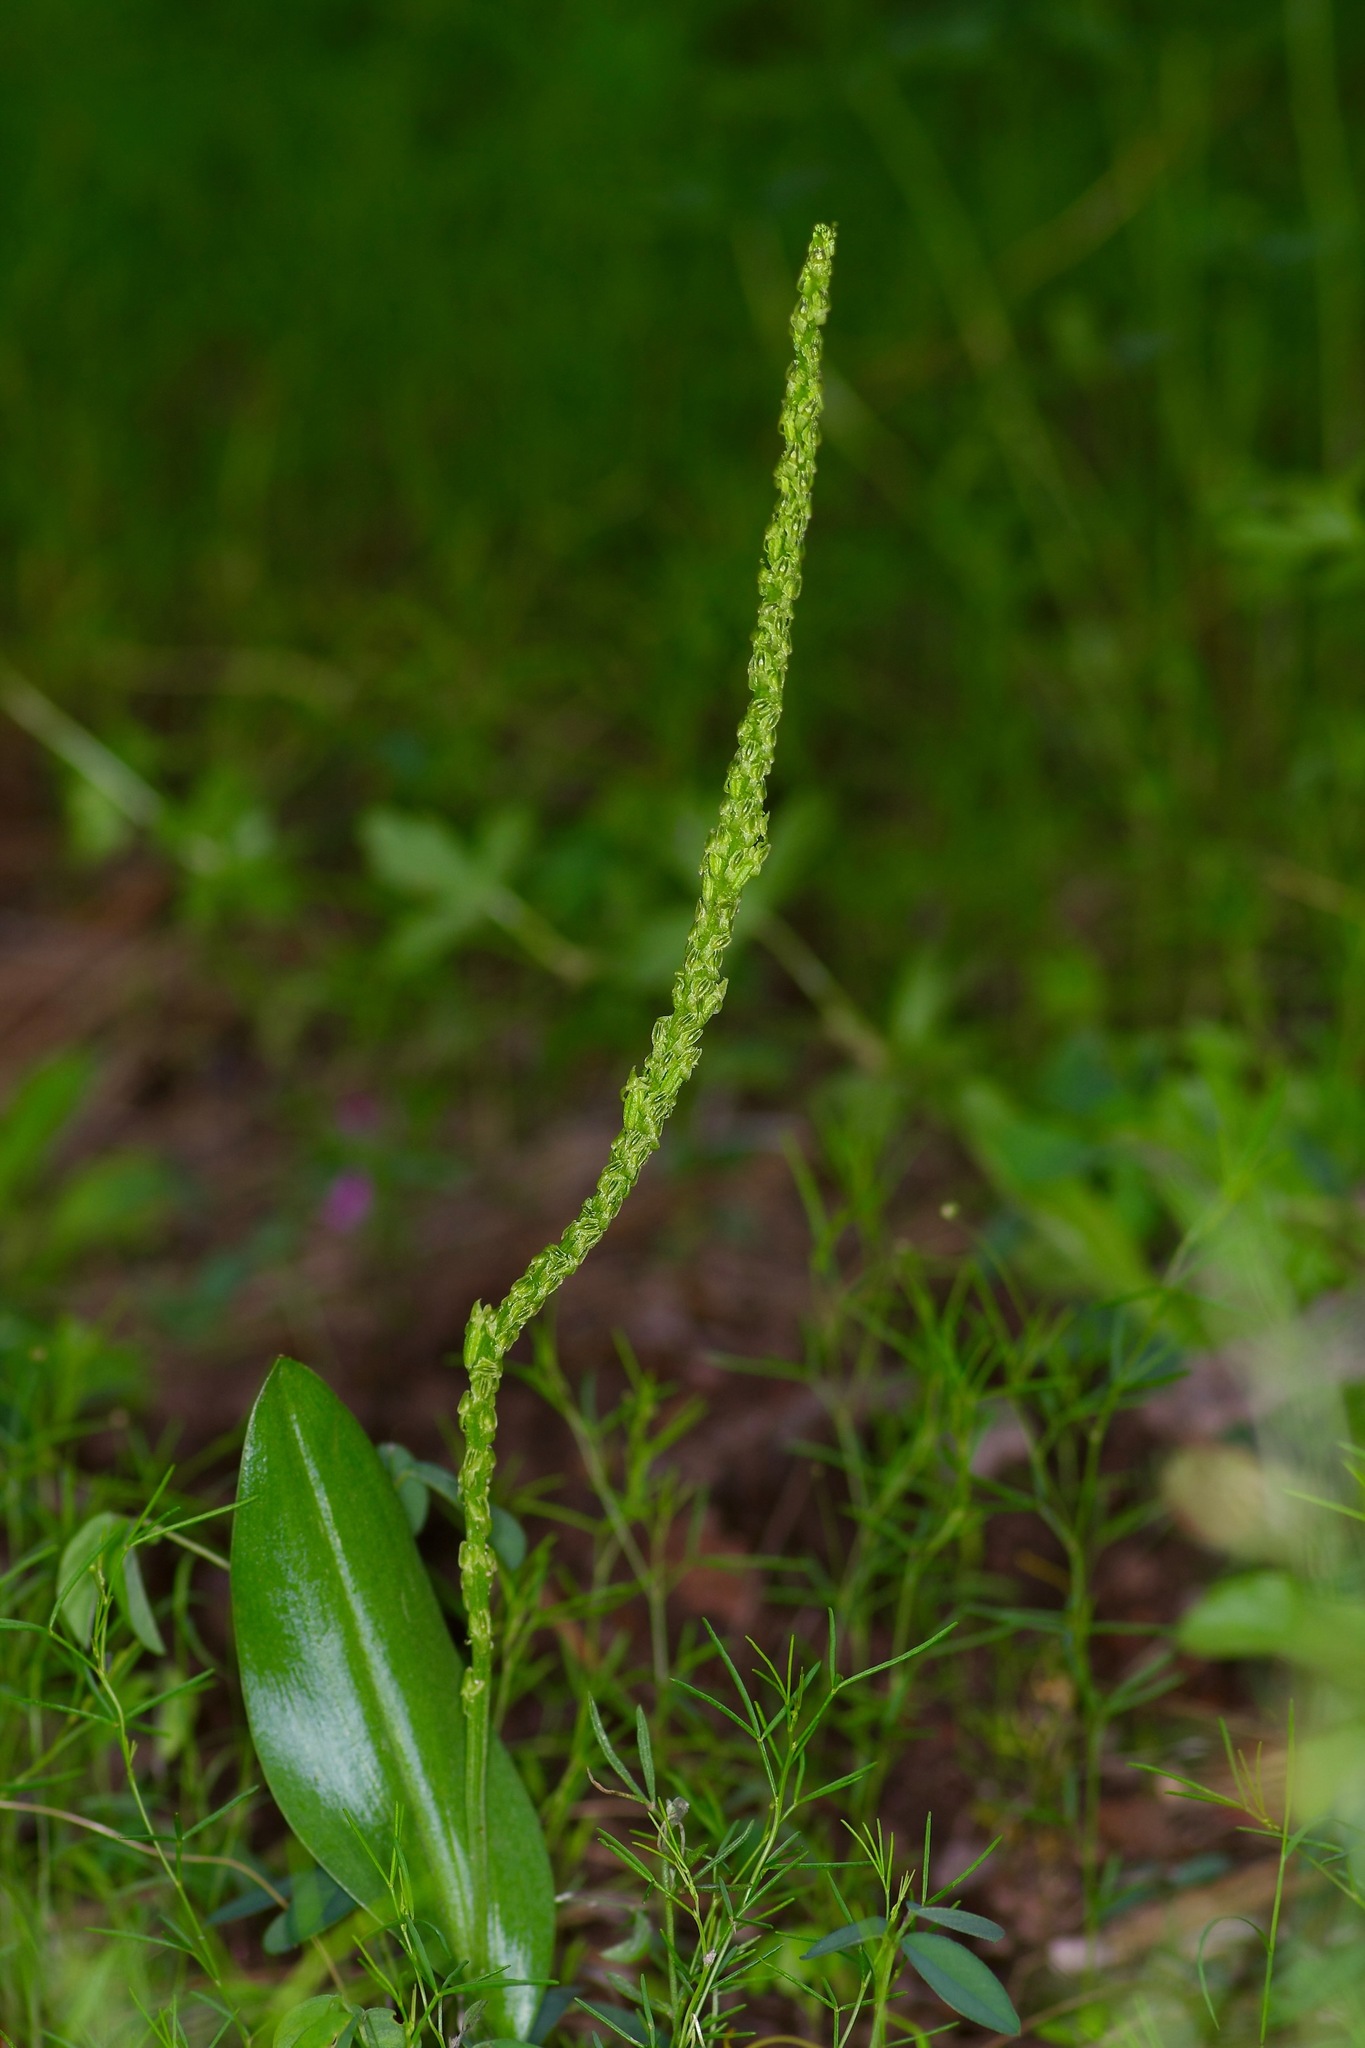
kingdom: Plantae
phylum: Tracheophyta
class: Liliopsida
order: Asparagales
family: Orchidaceae
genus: Malaxis
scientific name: Malaxis macrostachya
